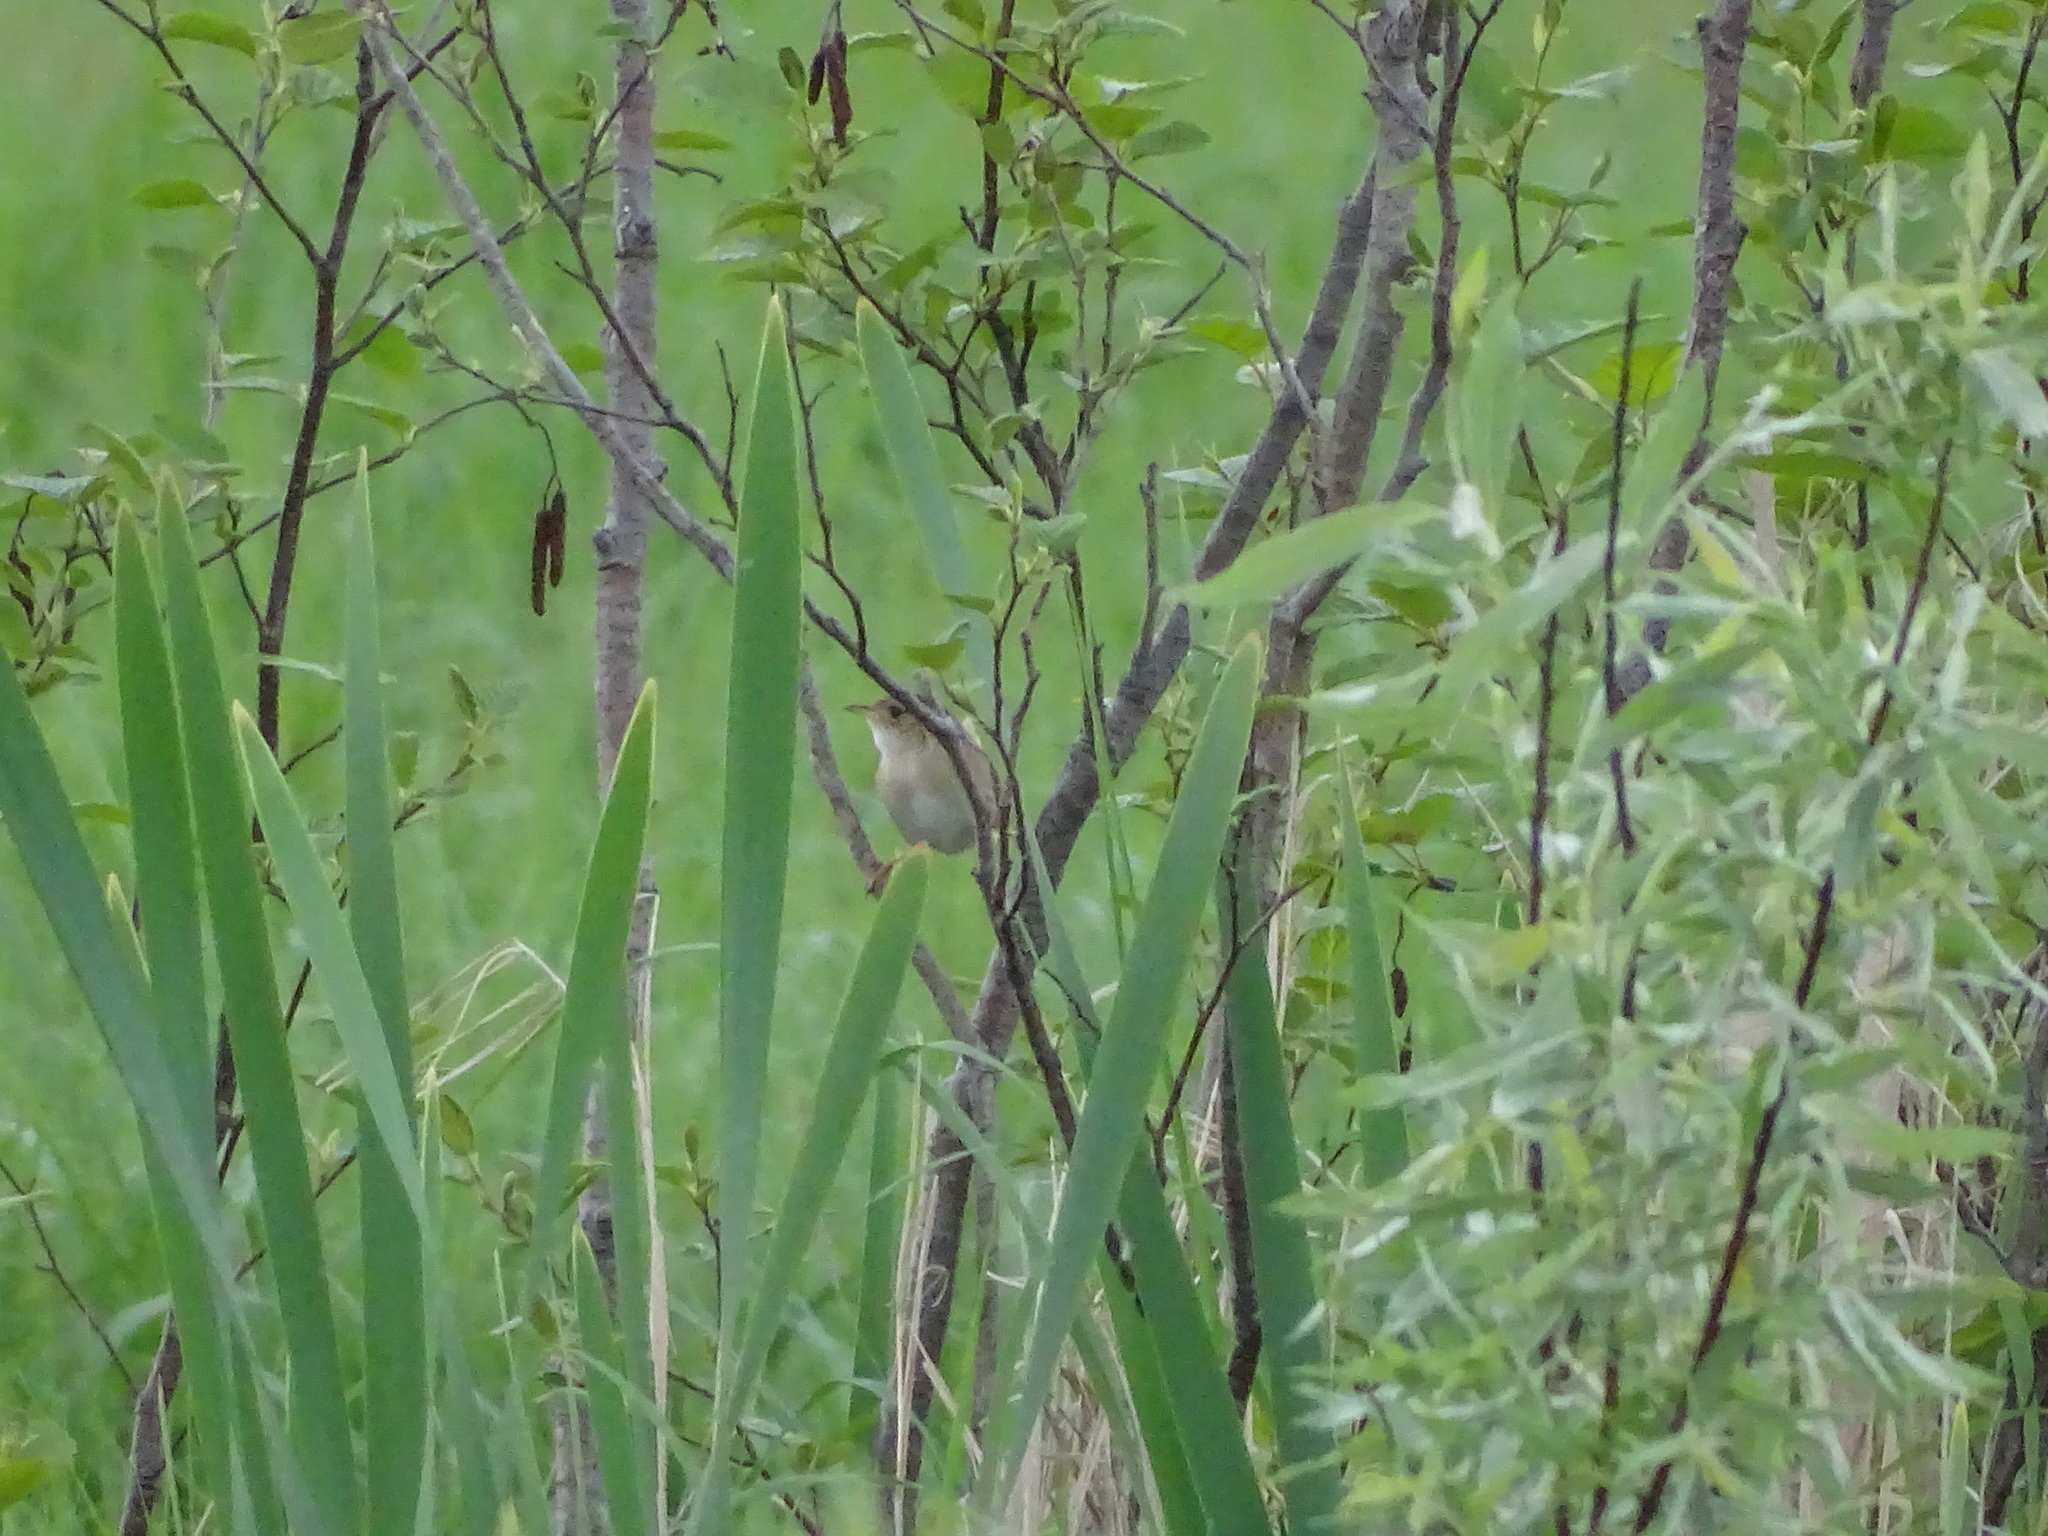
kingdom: Animalia
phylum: Chordata
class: Aves
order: Passeriformes
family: Troglodytidae
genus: Cistothorus
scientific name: Cistothorus platensis
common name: Sedge wren
